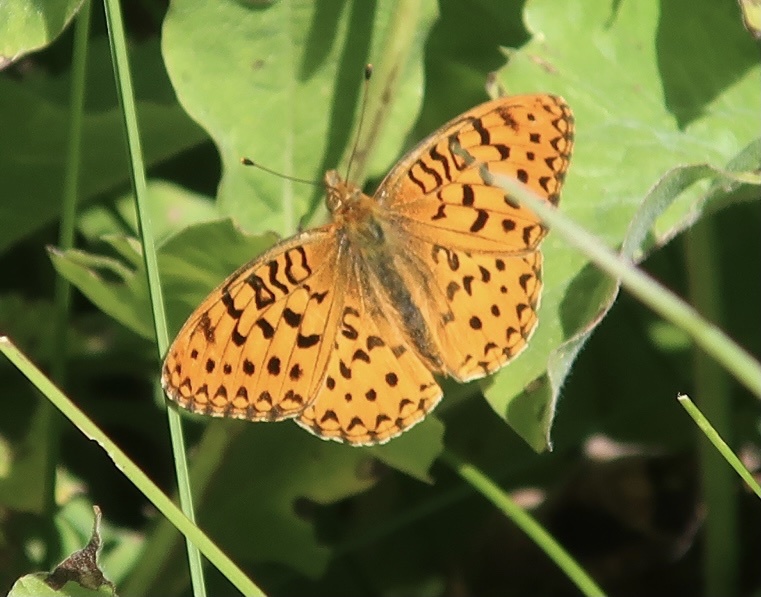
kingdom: Animalia
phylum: Arthropoda
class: Insecta
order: Lepidoptera
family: Nymphalidae
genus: Speyeria
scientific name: Speyeria mormonia
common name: Mormon fritillary
